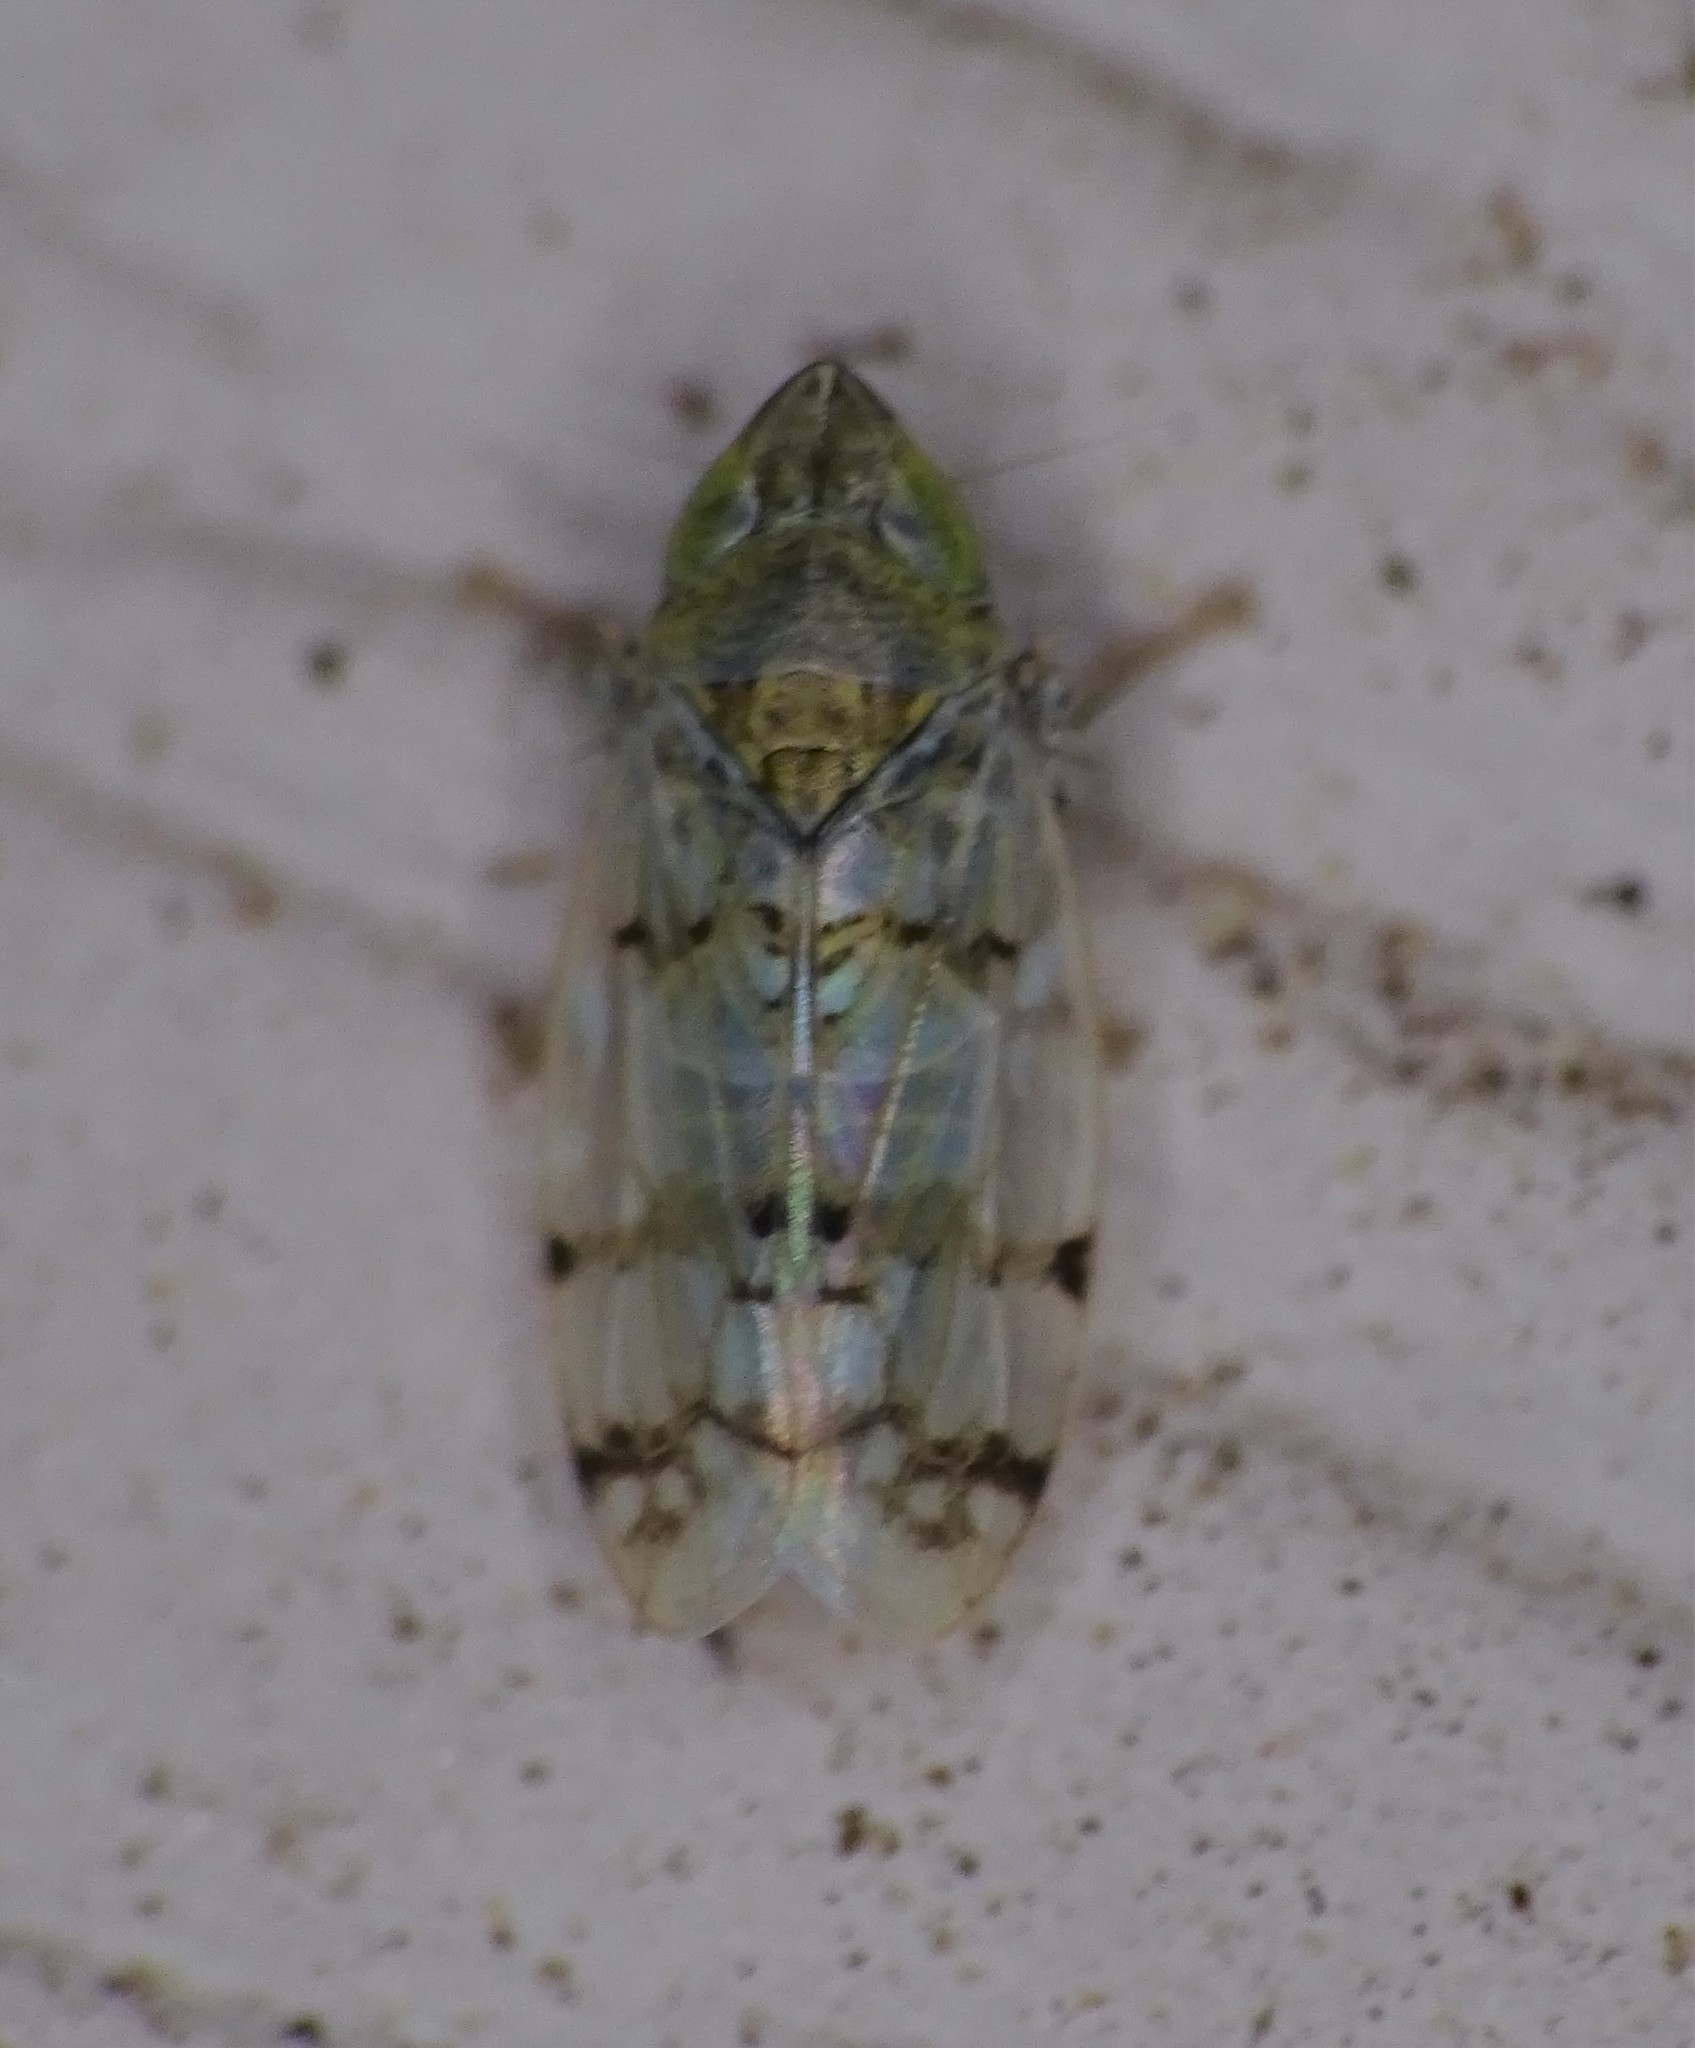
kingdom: Animalia
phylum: Arthropoda
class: Insecta
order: Hemiptera
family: Cicadellidae
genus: Japananus
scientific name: Japananus hyalinus
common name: The japanese maple leafhopper
